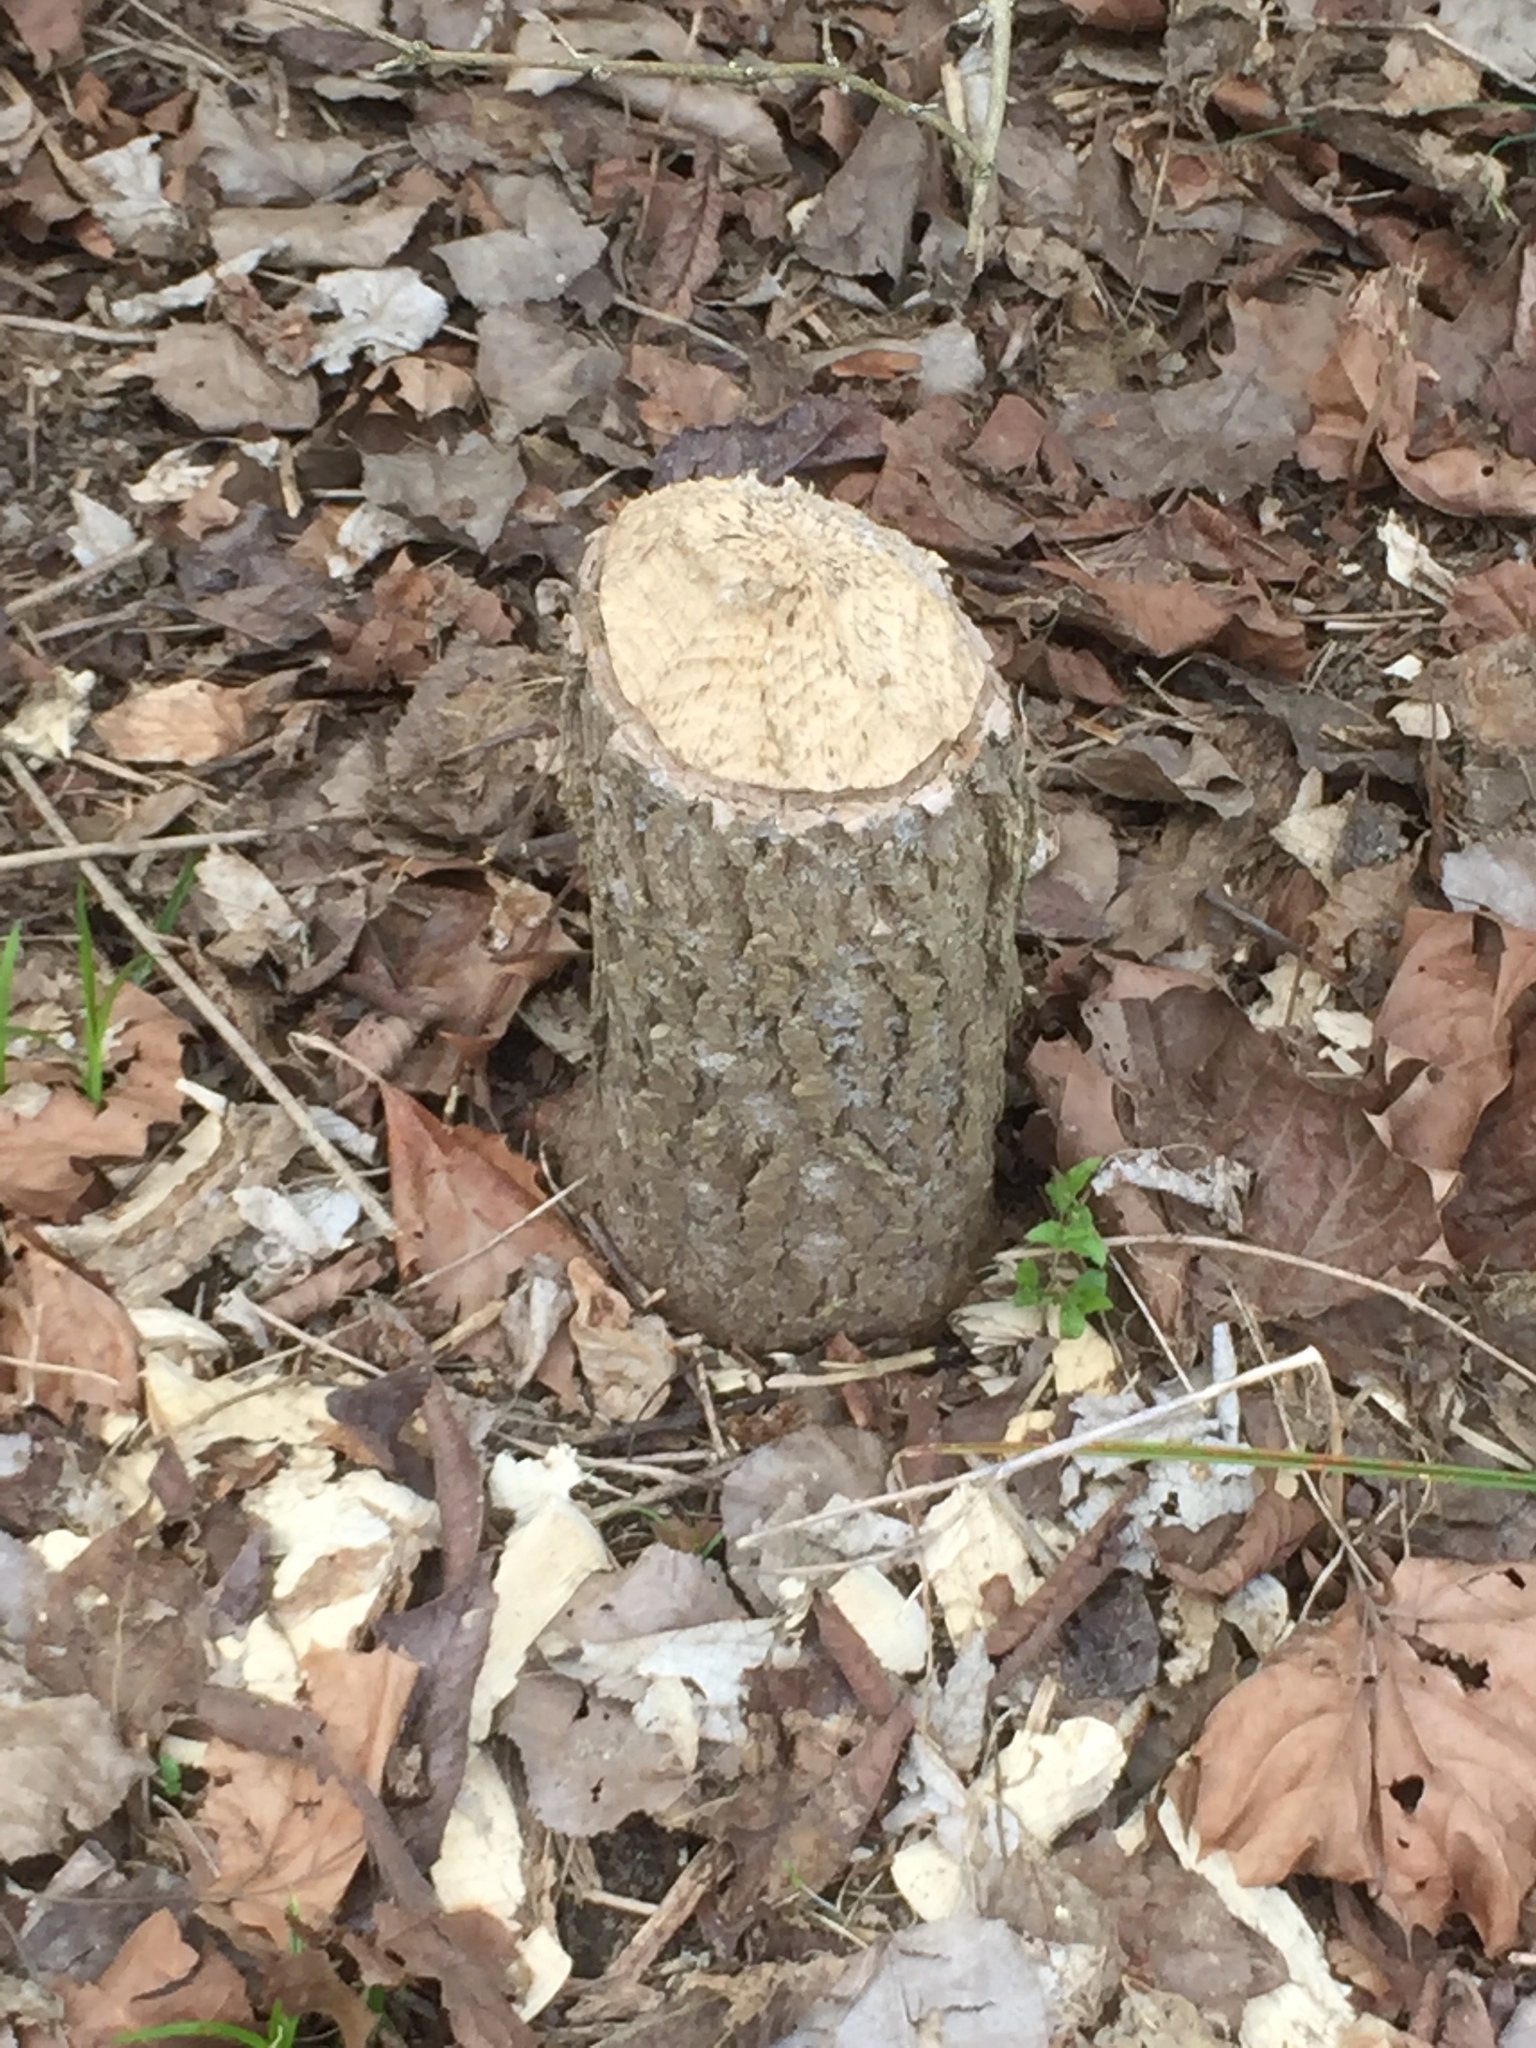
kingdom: Animalia
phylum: Chordata
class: Mammalia
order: Rodentia
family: Castoridae
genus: Castor
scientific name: Castor canadensis
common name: American beaver
